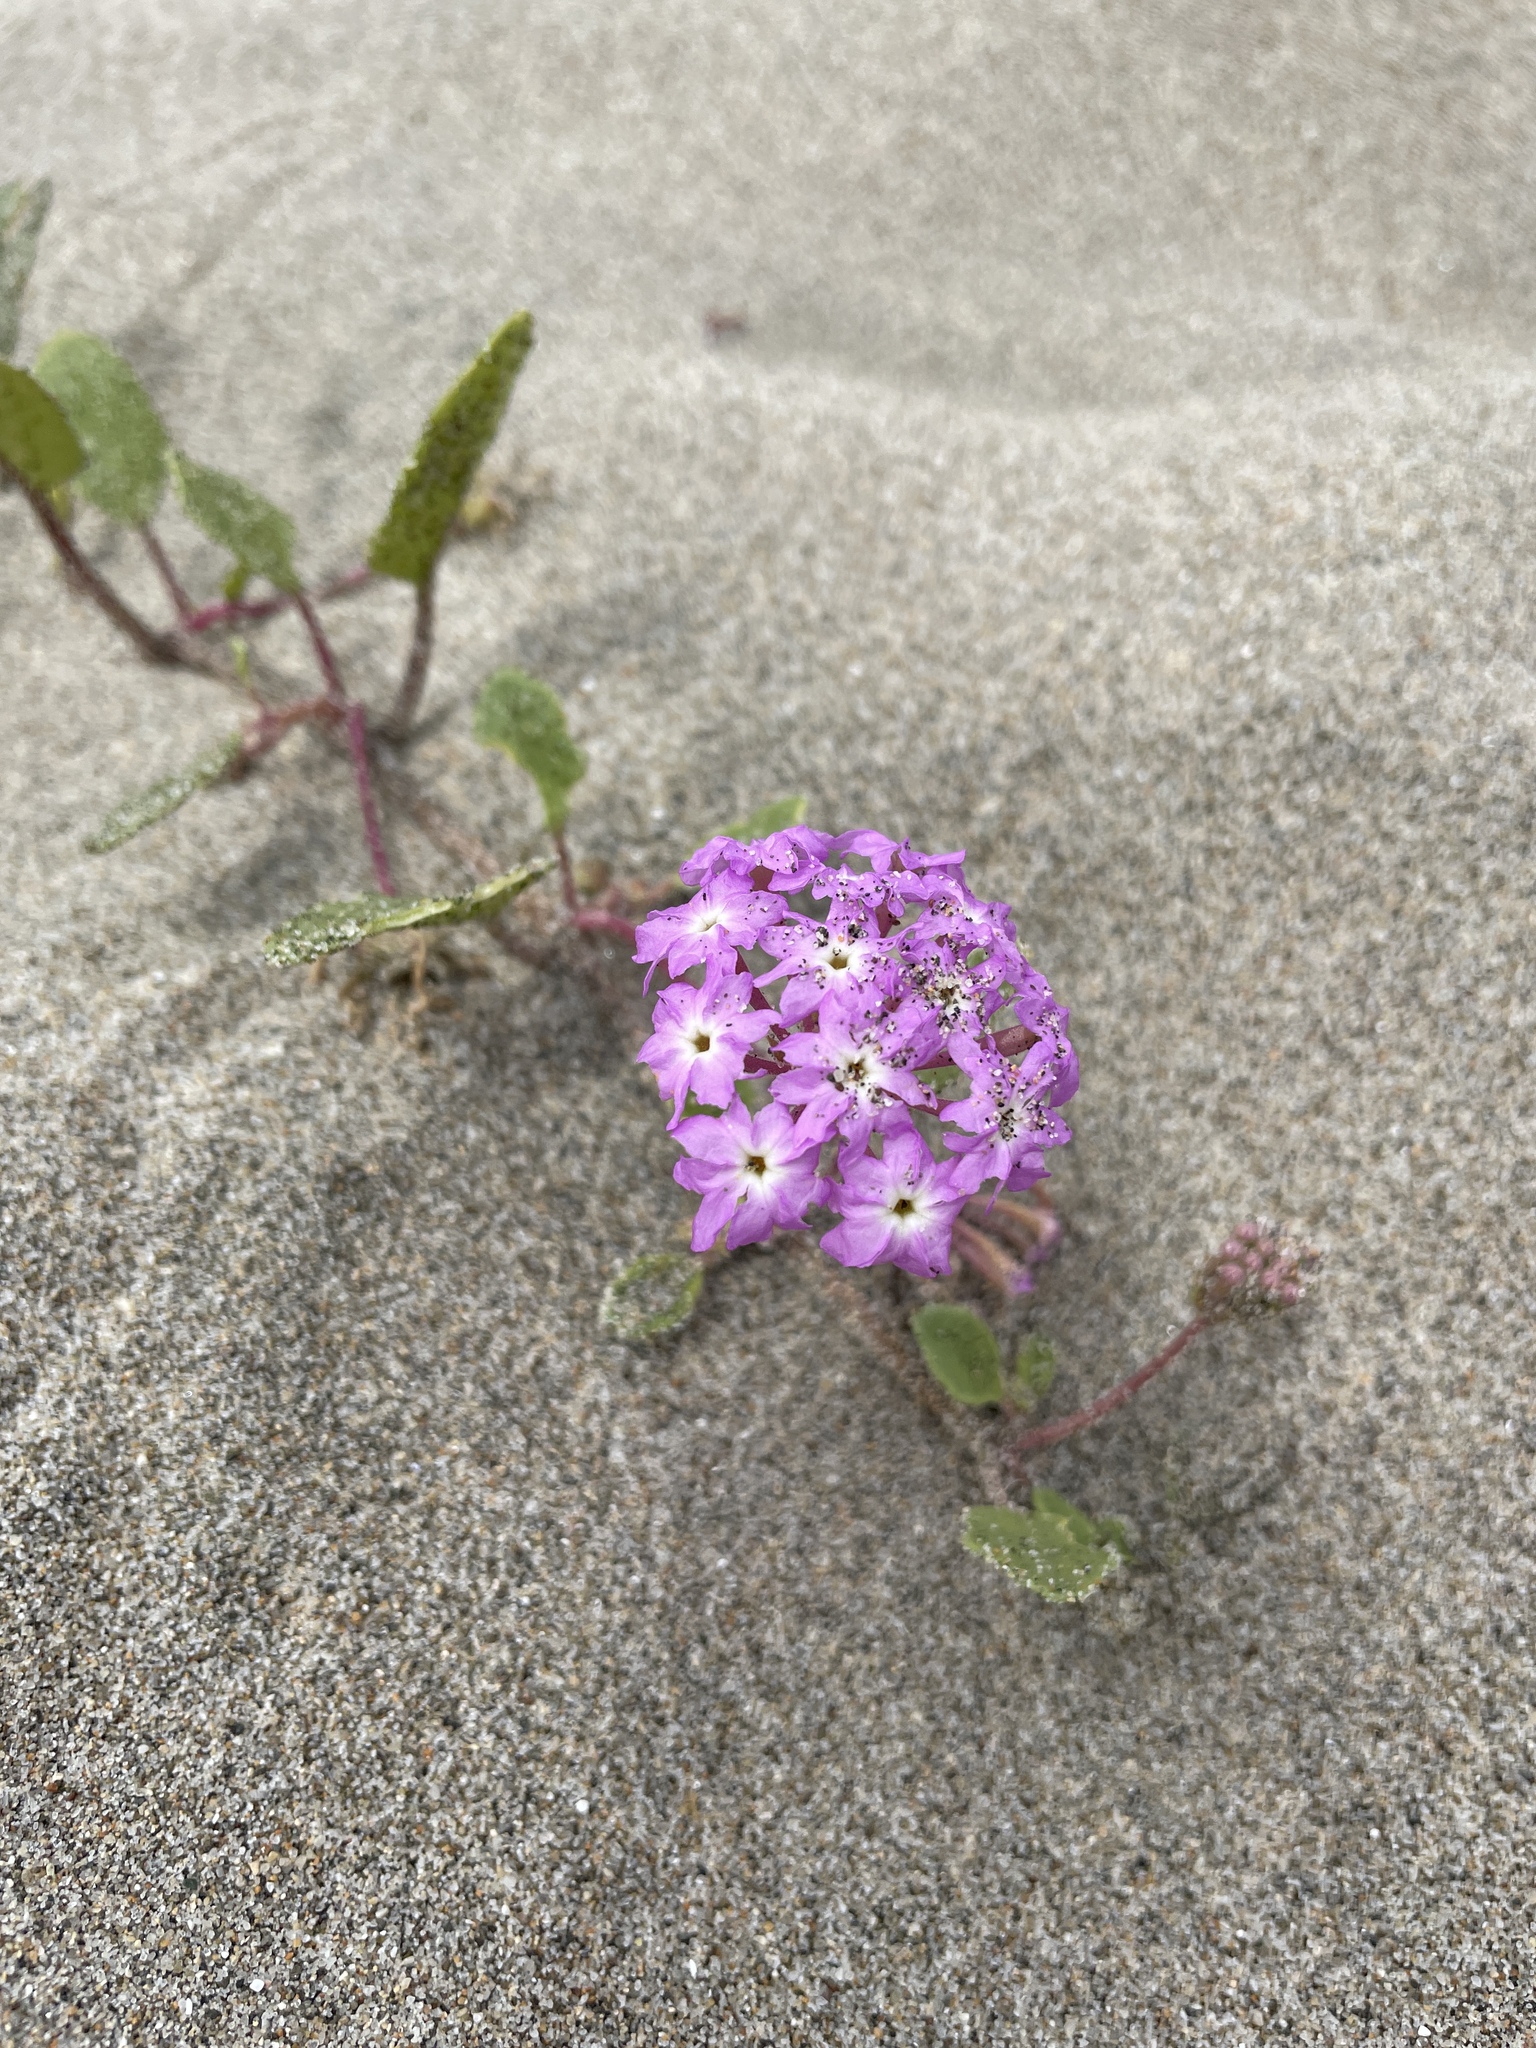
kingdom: Plantae
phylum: Tracheophyta
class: Magnoliopsida
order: Caryophyllales
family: Nyctaginaceae
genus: Abronia
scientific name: Abronia umbellata
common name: Sand-verbena
